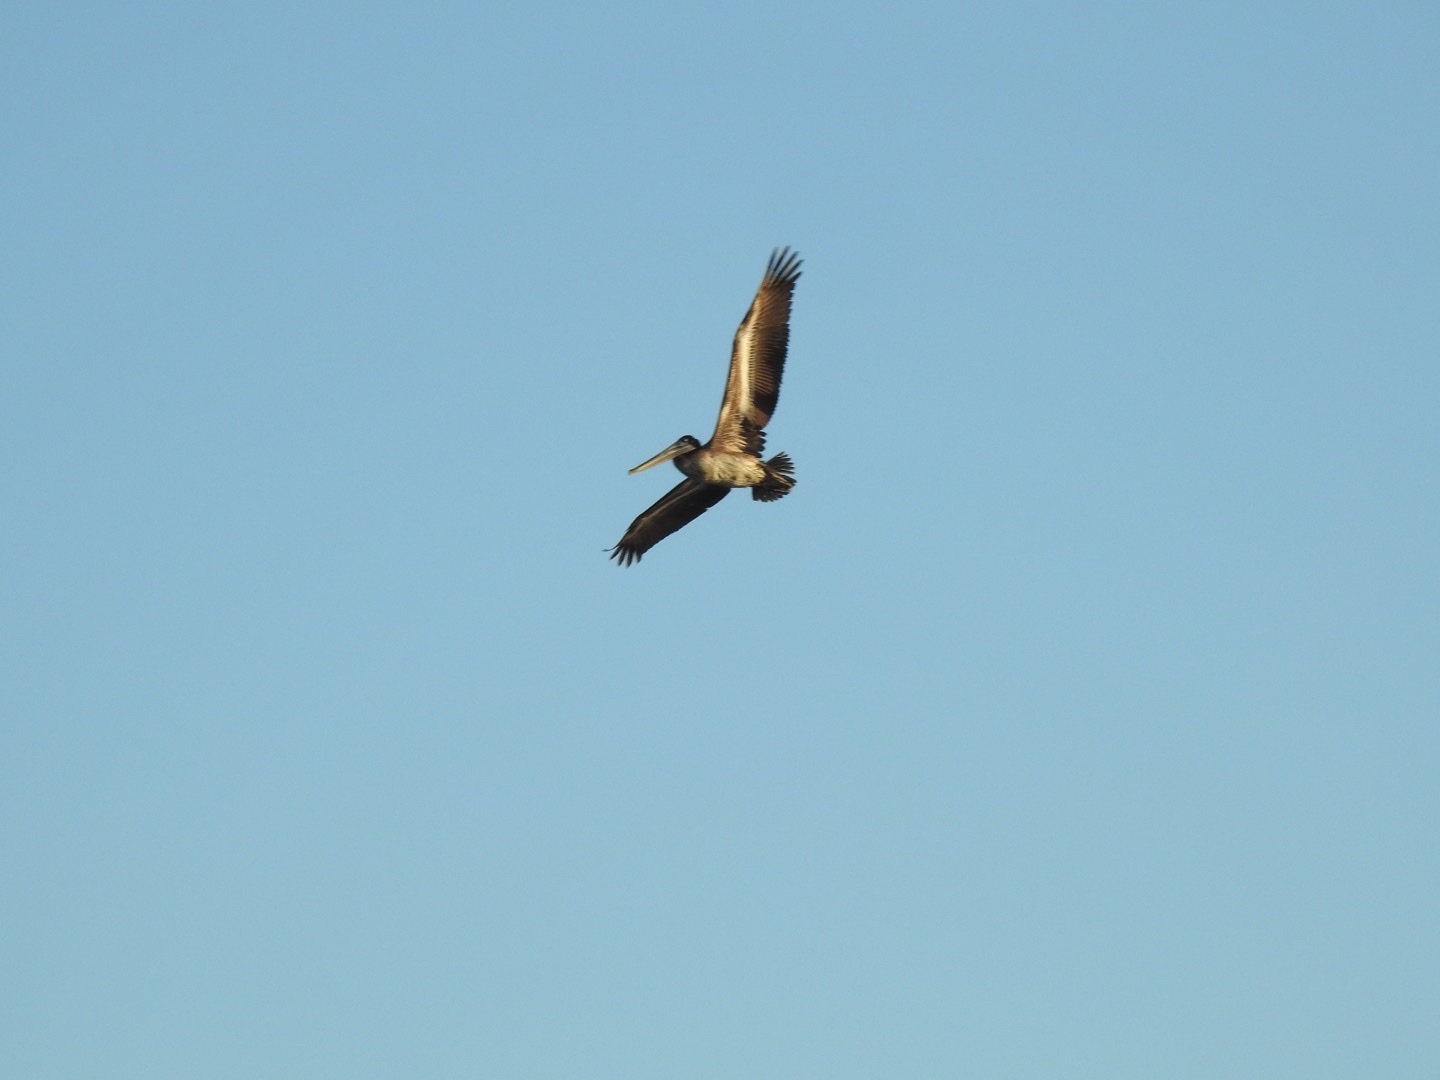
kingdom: Animalia
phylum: Chordata
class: Aves
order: Pelecaniformes
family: Pelecanidae
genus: Pelecanus
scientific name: Pelecanus occidentalis
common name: Brown pelican
